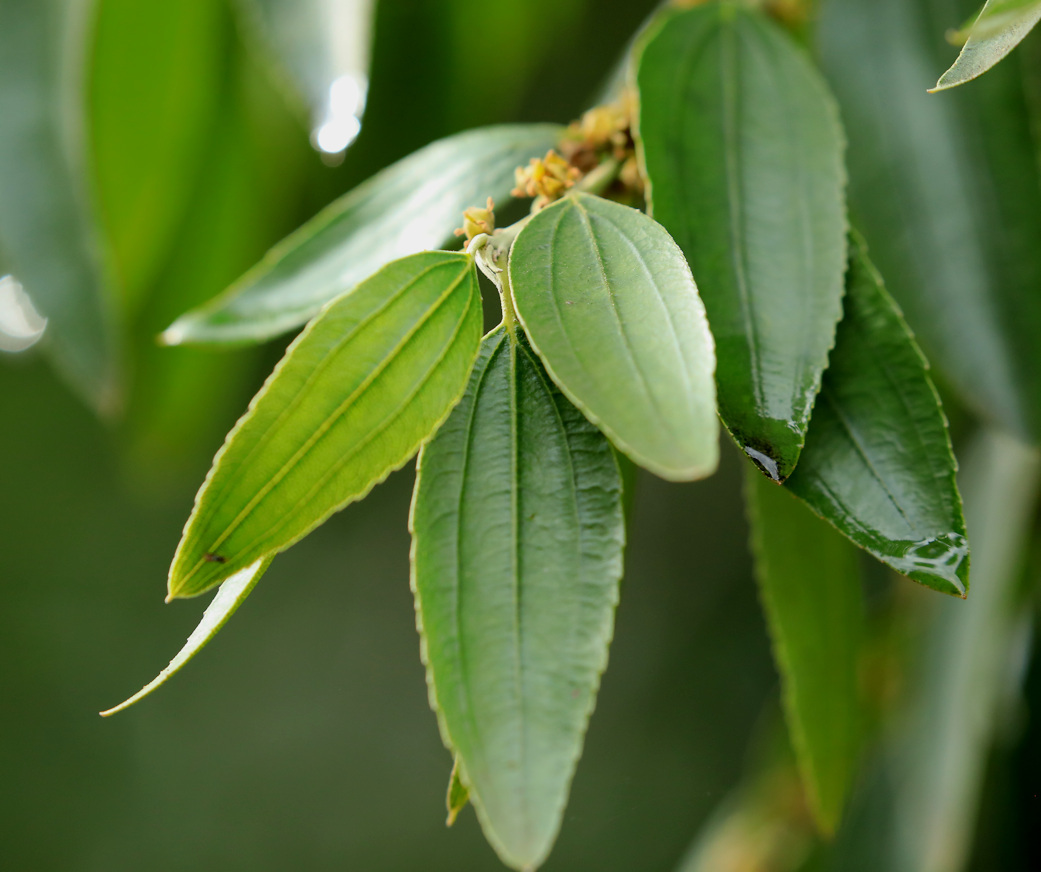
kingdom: Plantae
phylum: Tracheophyta
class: Magnoliopsida
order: Rosales
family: Rhamnaceae
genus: Ziziphus
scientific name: Ziziphus rivularis
